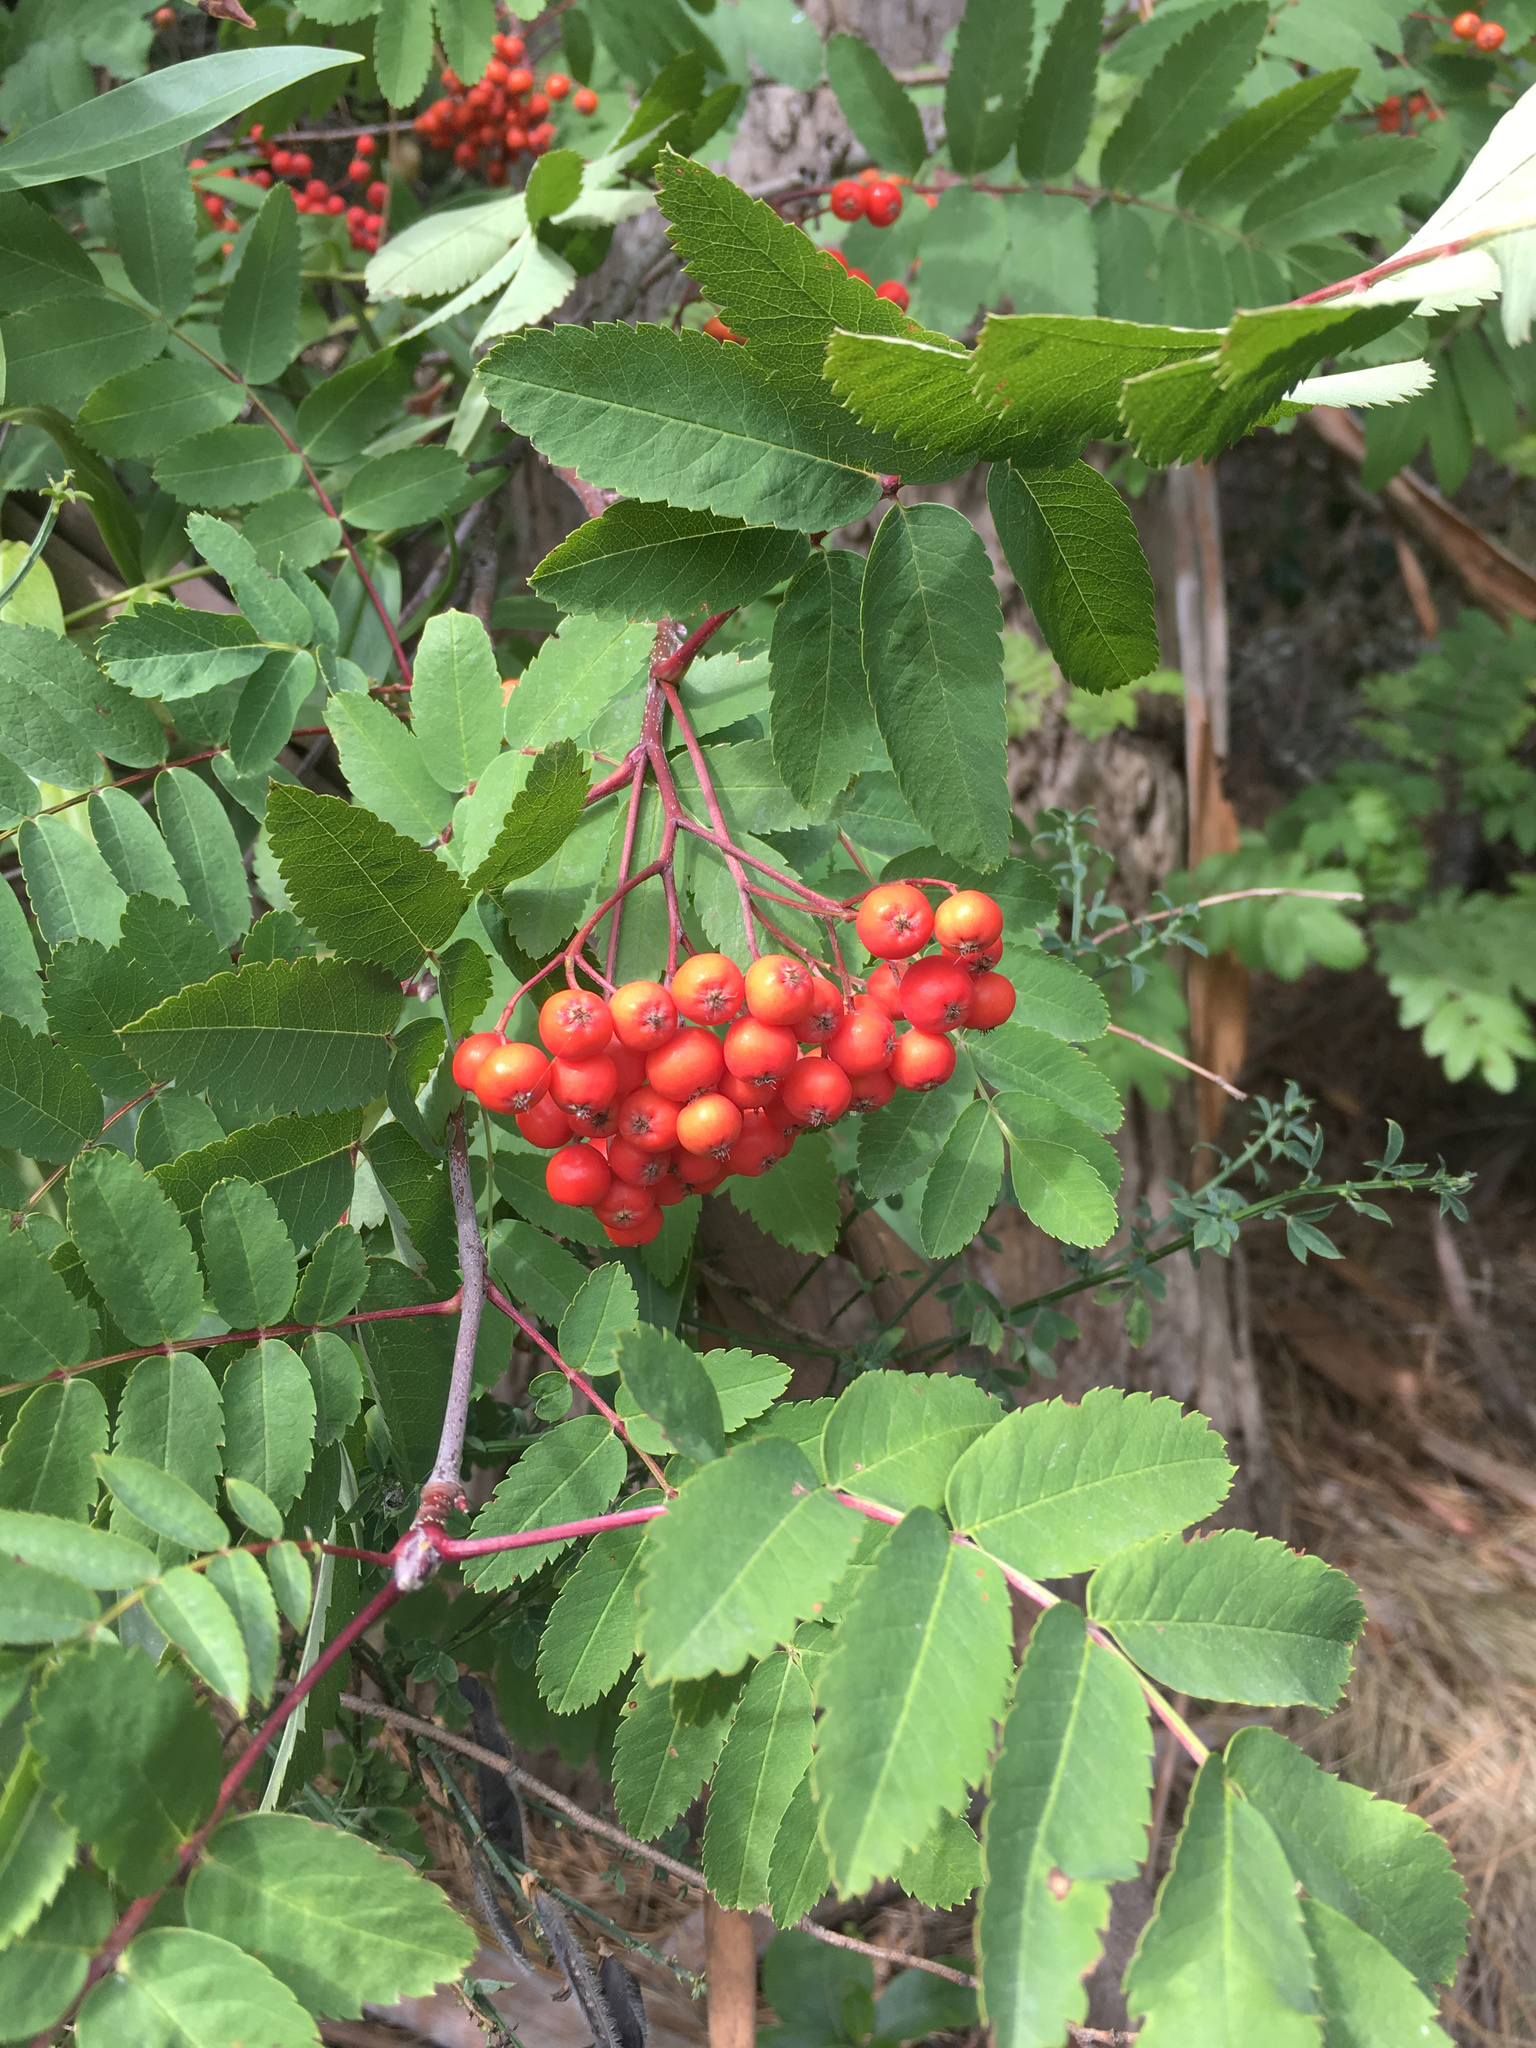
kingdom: Plantae
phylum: Tracheophyta
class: Magnoliopsida
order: Rosales
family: Rosaceae
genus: Sorbus
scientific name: Sorbus aucuparia
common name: Rowan
